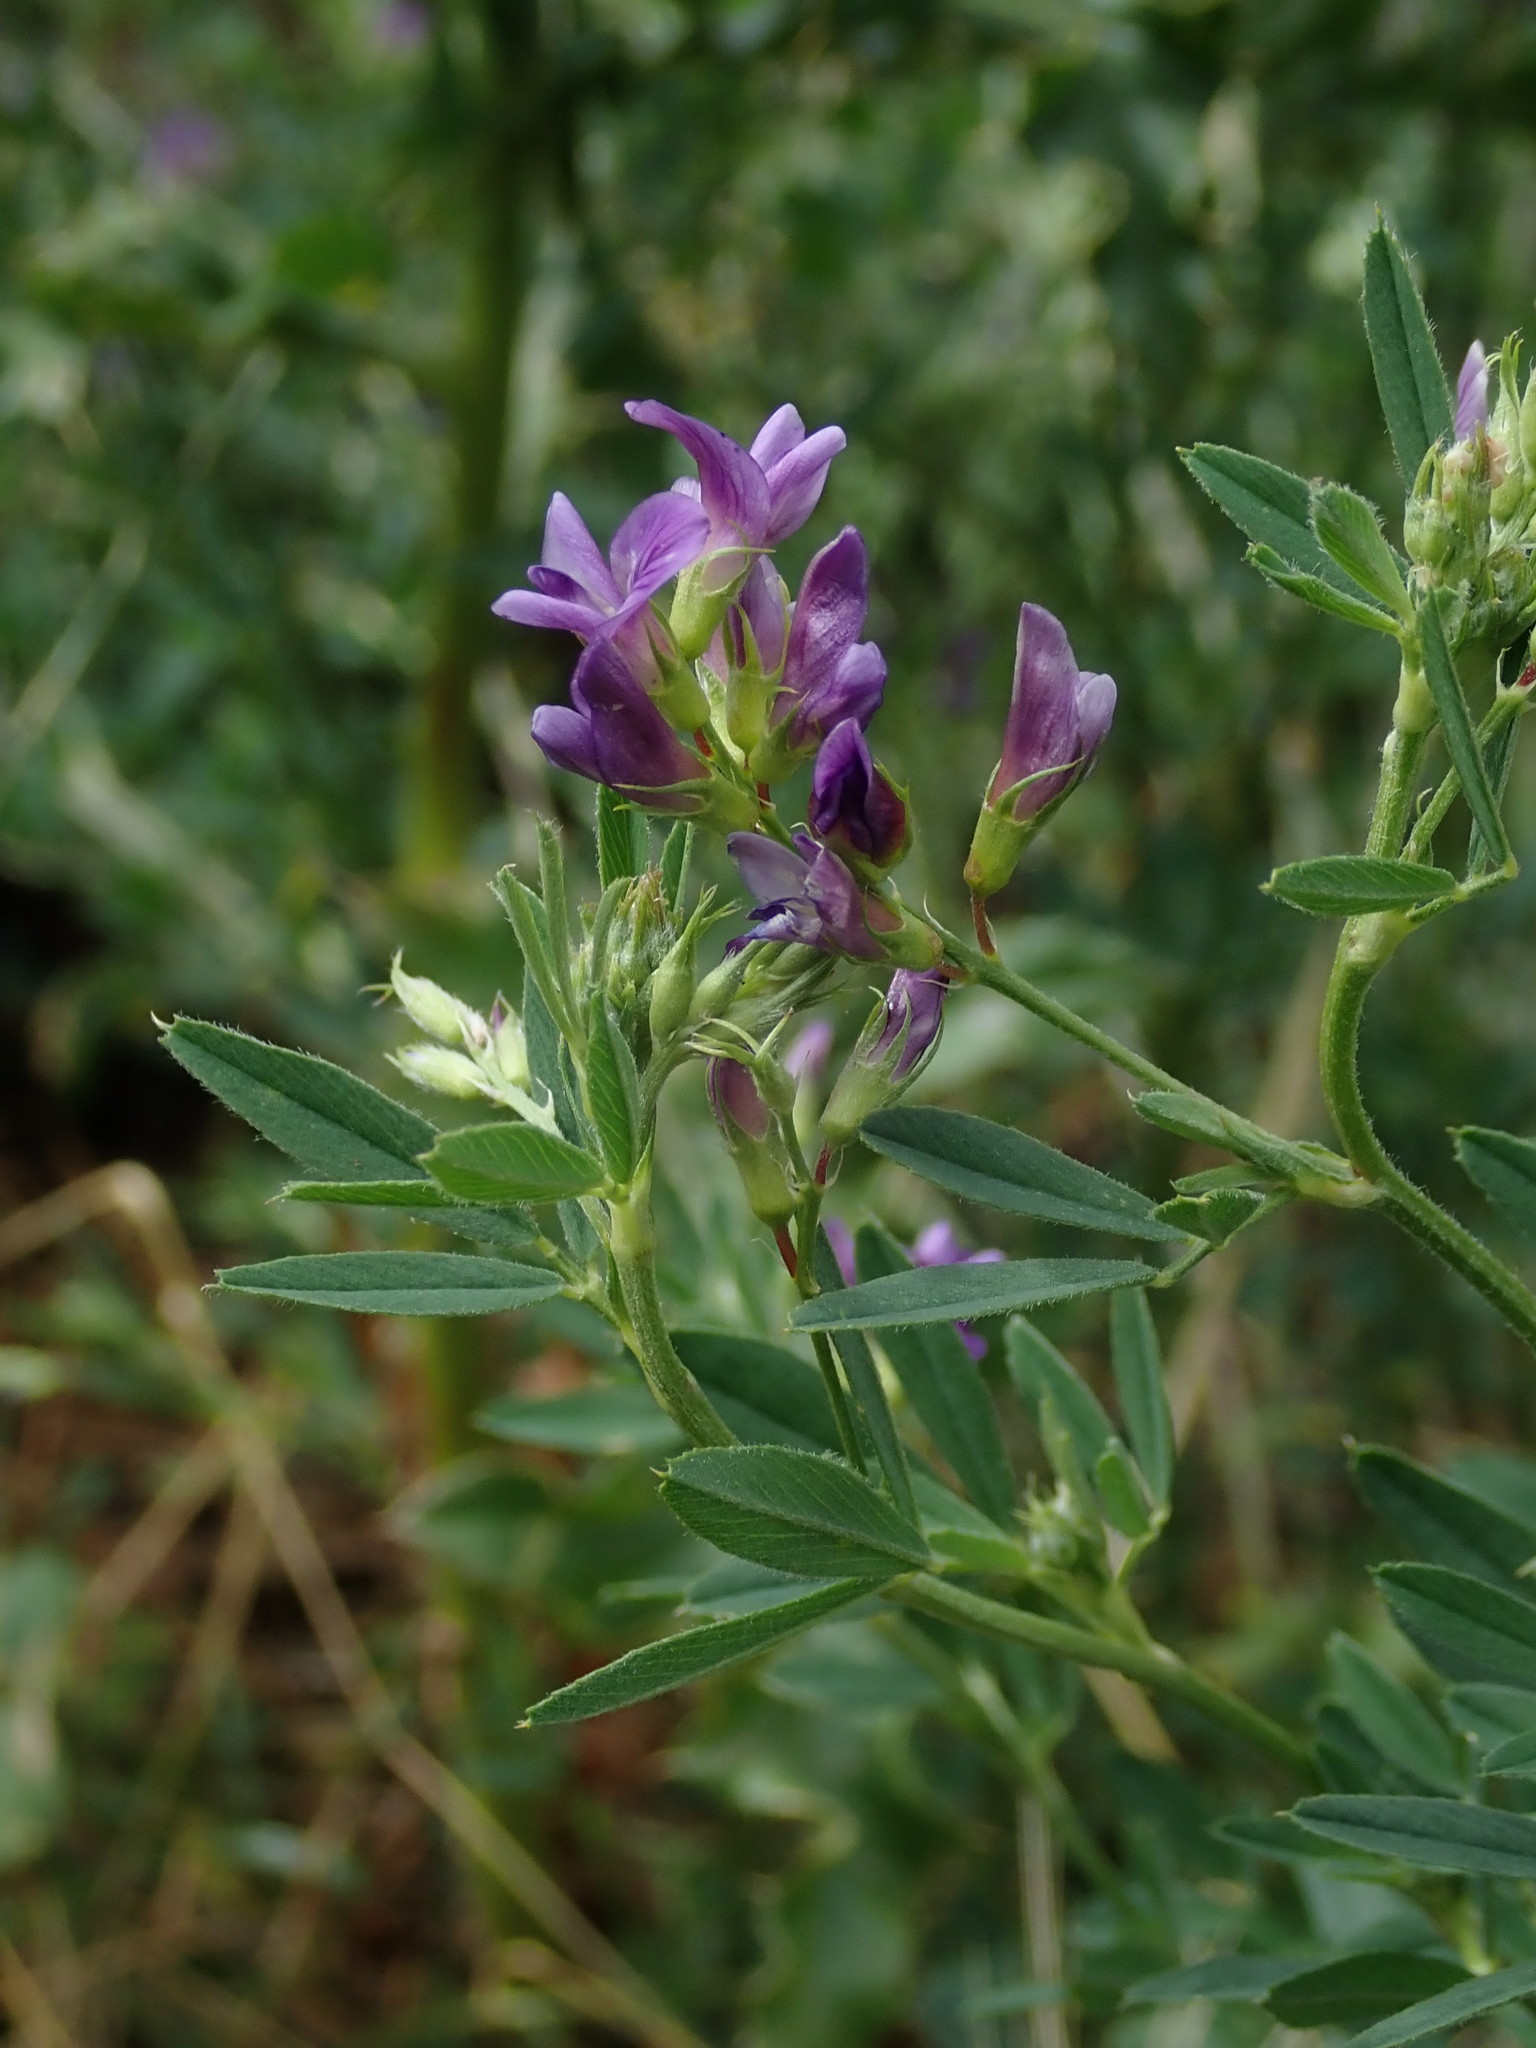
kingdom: Plantae
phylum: Tracheophyta
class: Magnoliopsida
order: Fabales
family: Fabaceae
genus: Medicago
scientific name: Medicago sativa
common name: Alfalfa
